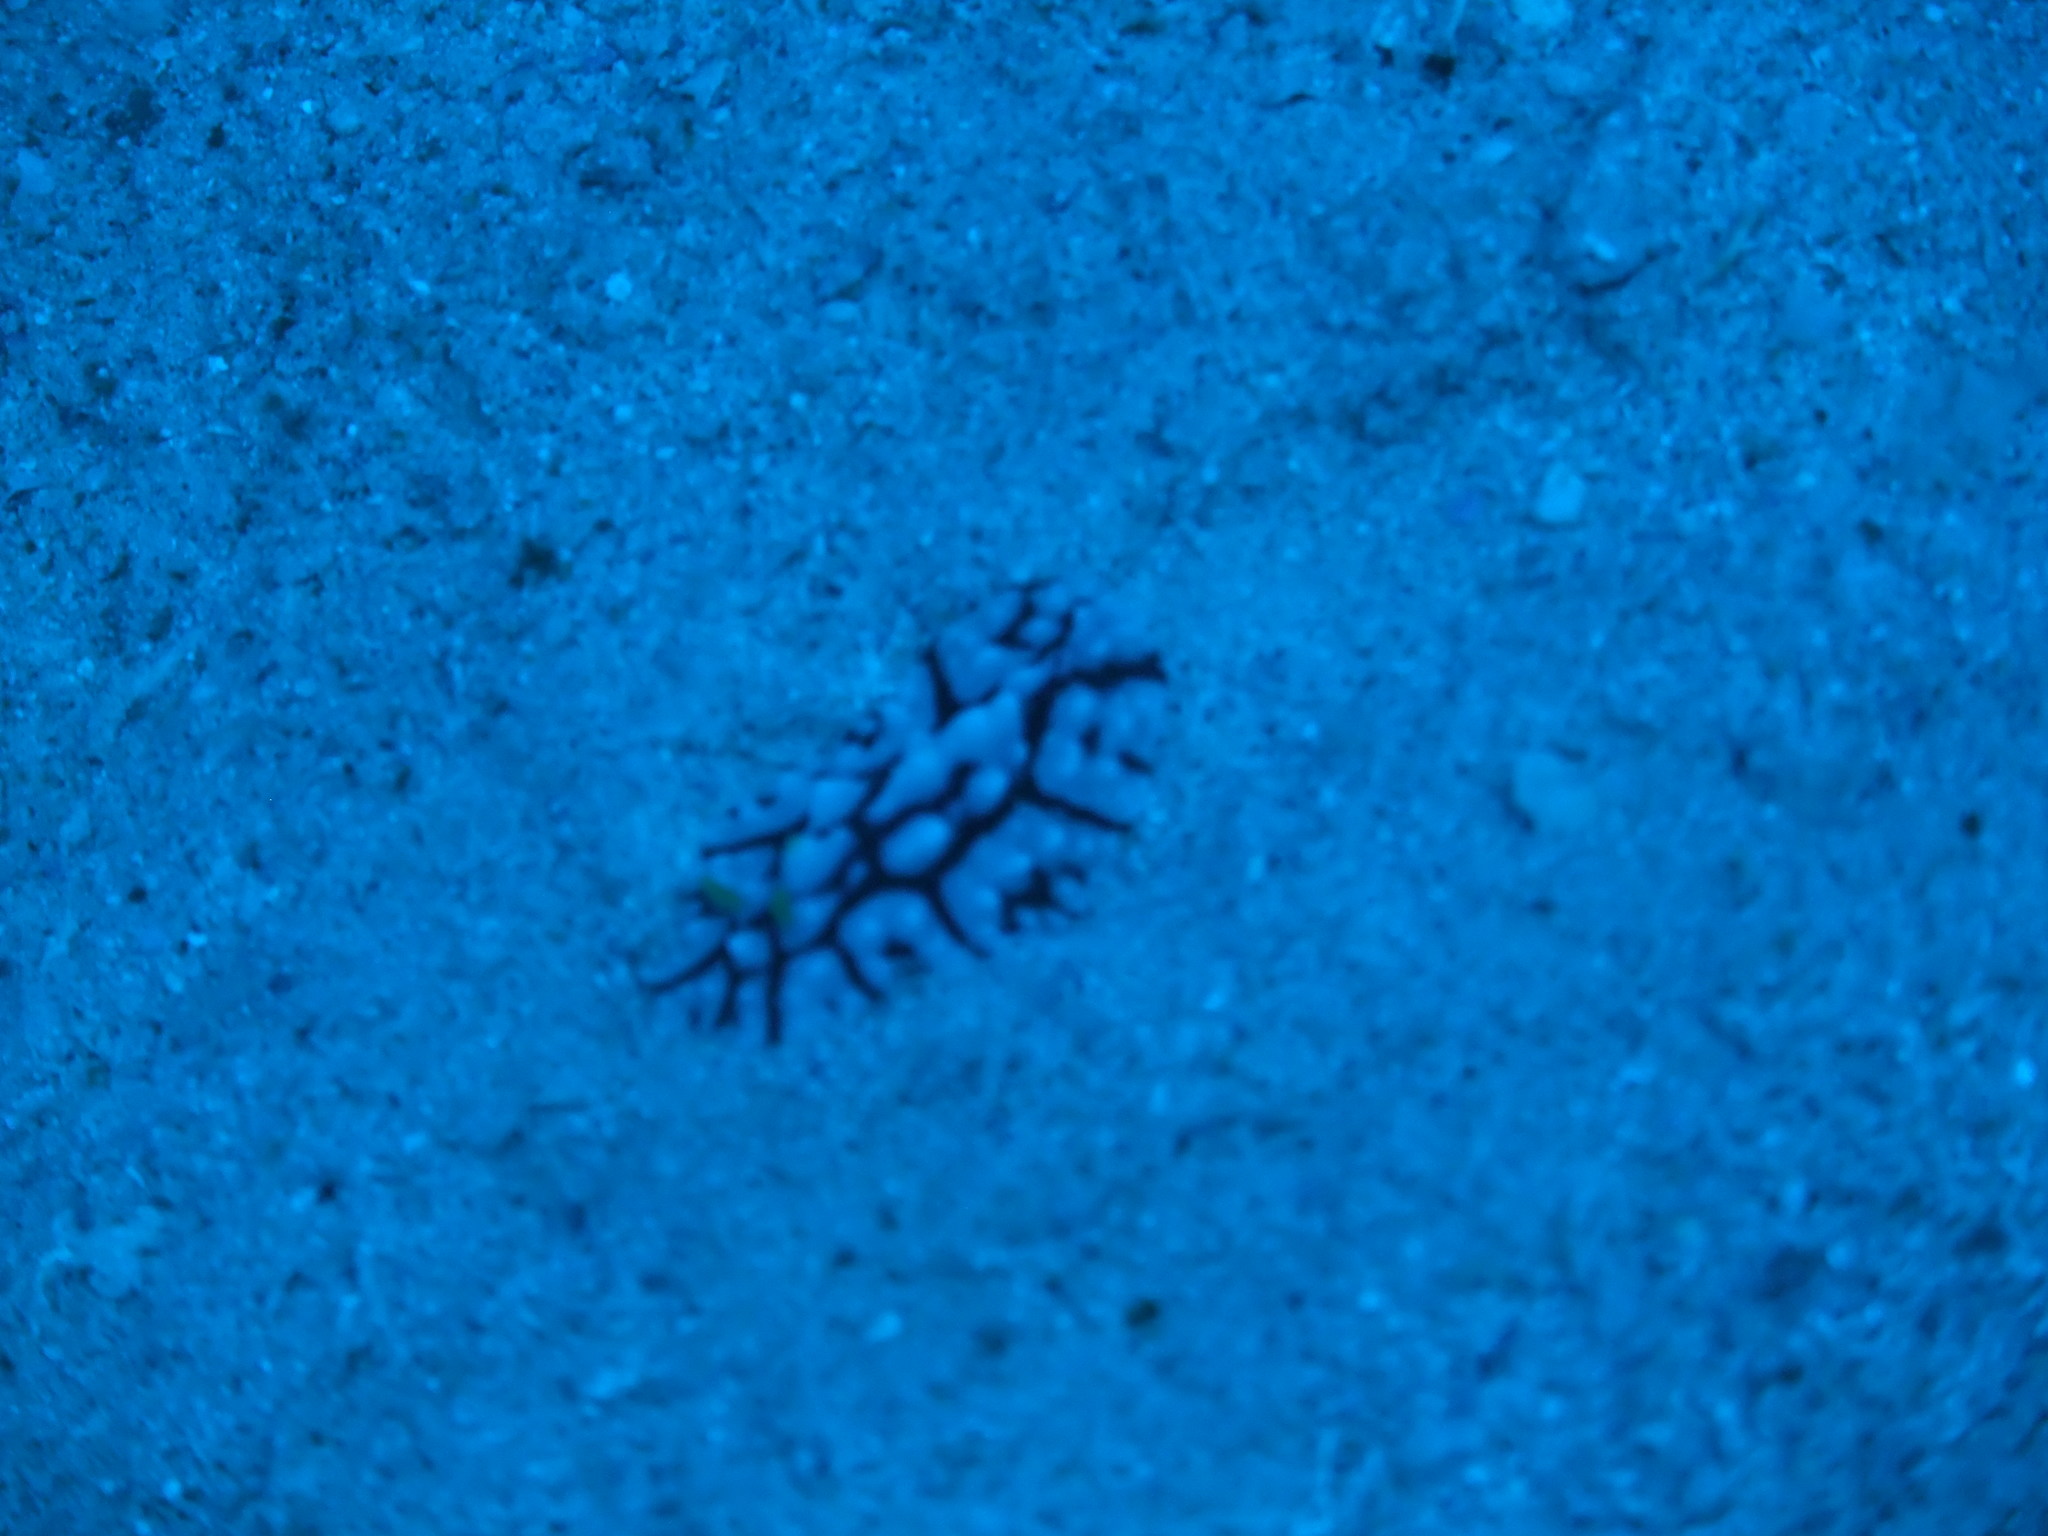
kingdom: Animalia
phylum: Mollusca
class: Gastropoda
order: Nudibranchia
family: Phyllidiidae
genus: Phyllidia
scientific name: Phyllidia multifaria
